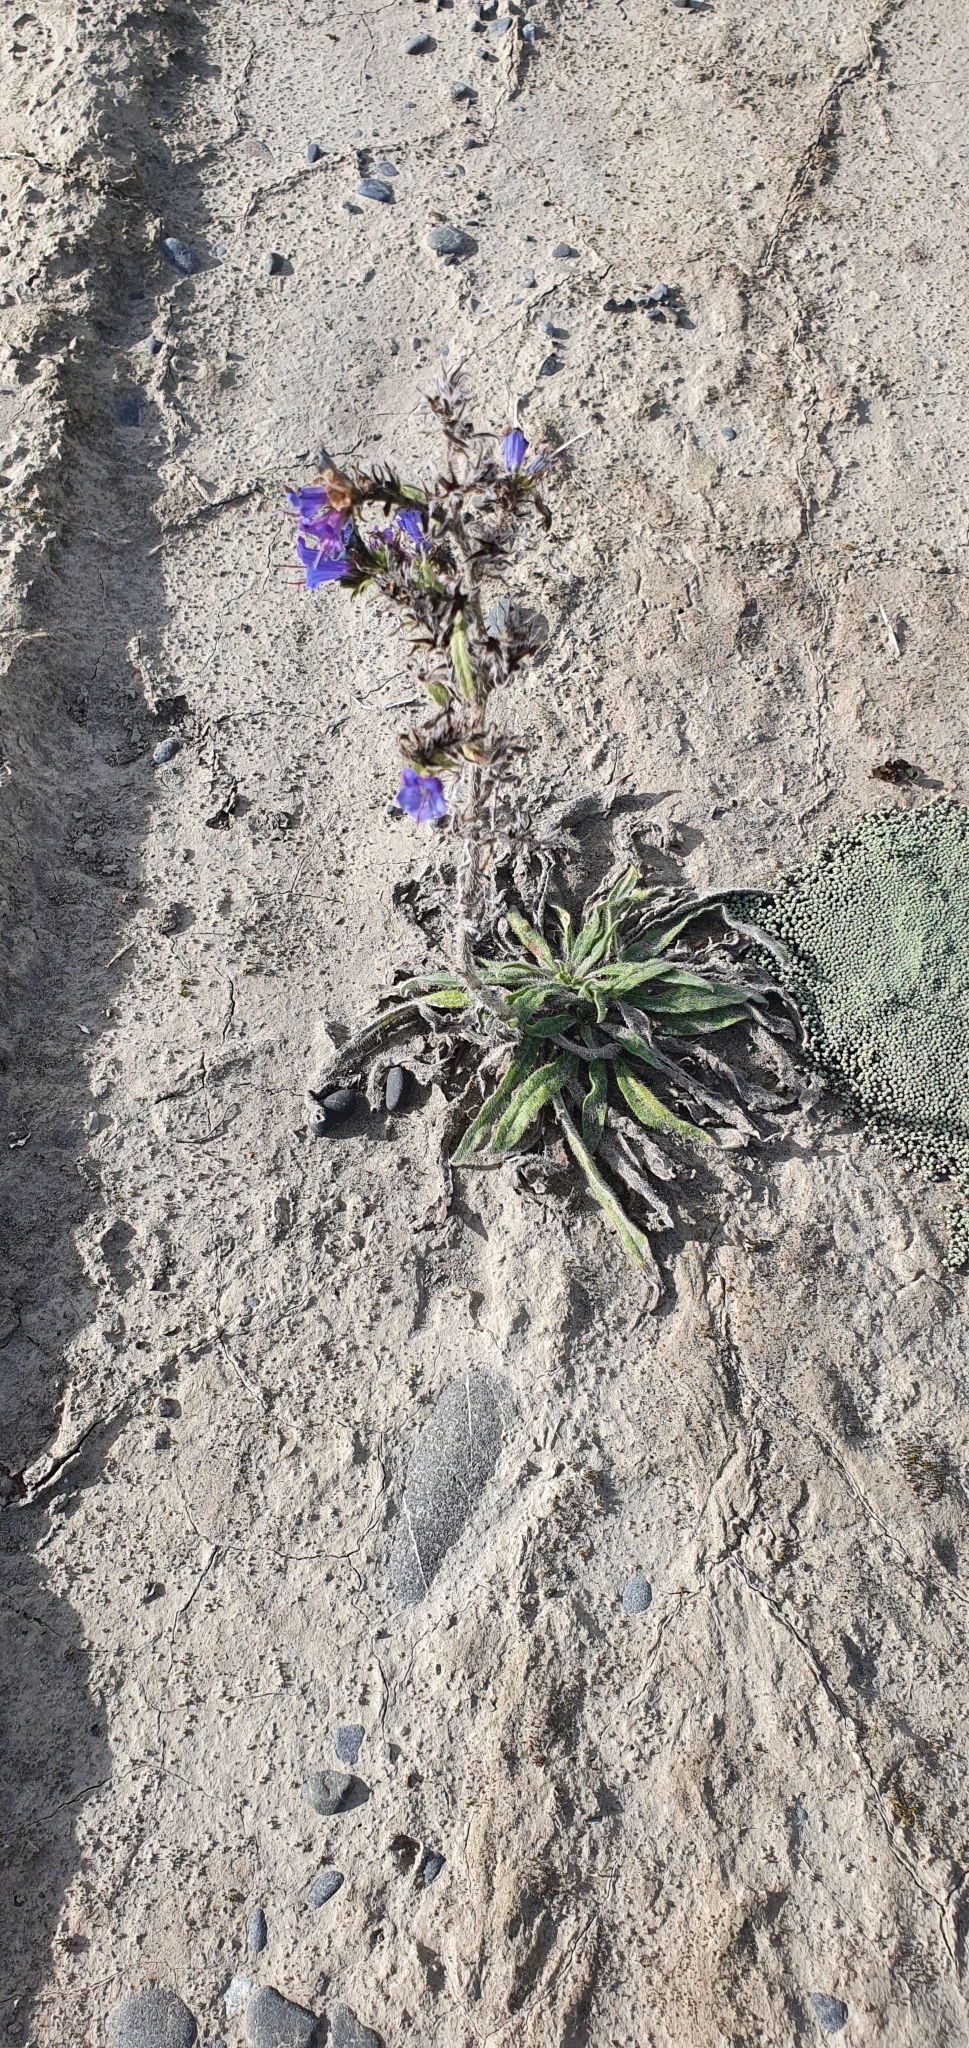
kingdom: Plantae
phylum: Tracheophyta
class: Magnoliopsida
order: Boraginales
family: Boraginaceae
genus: Echium
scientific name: Echium vulgare
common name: Common viper's bugloss
